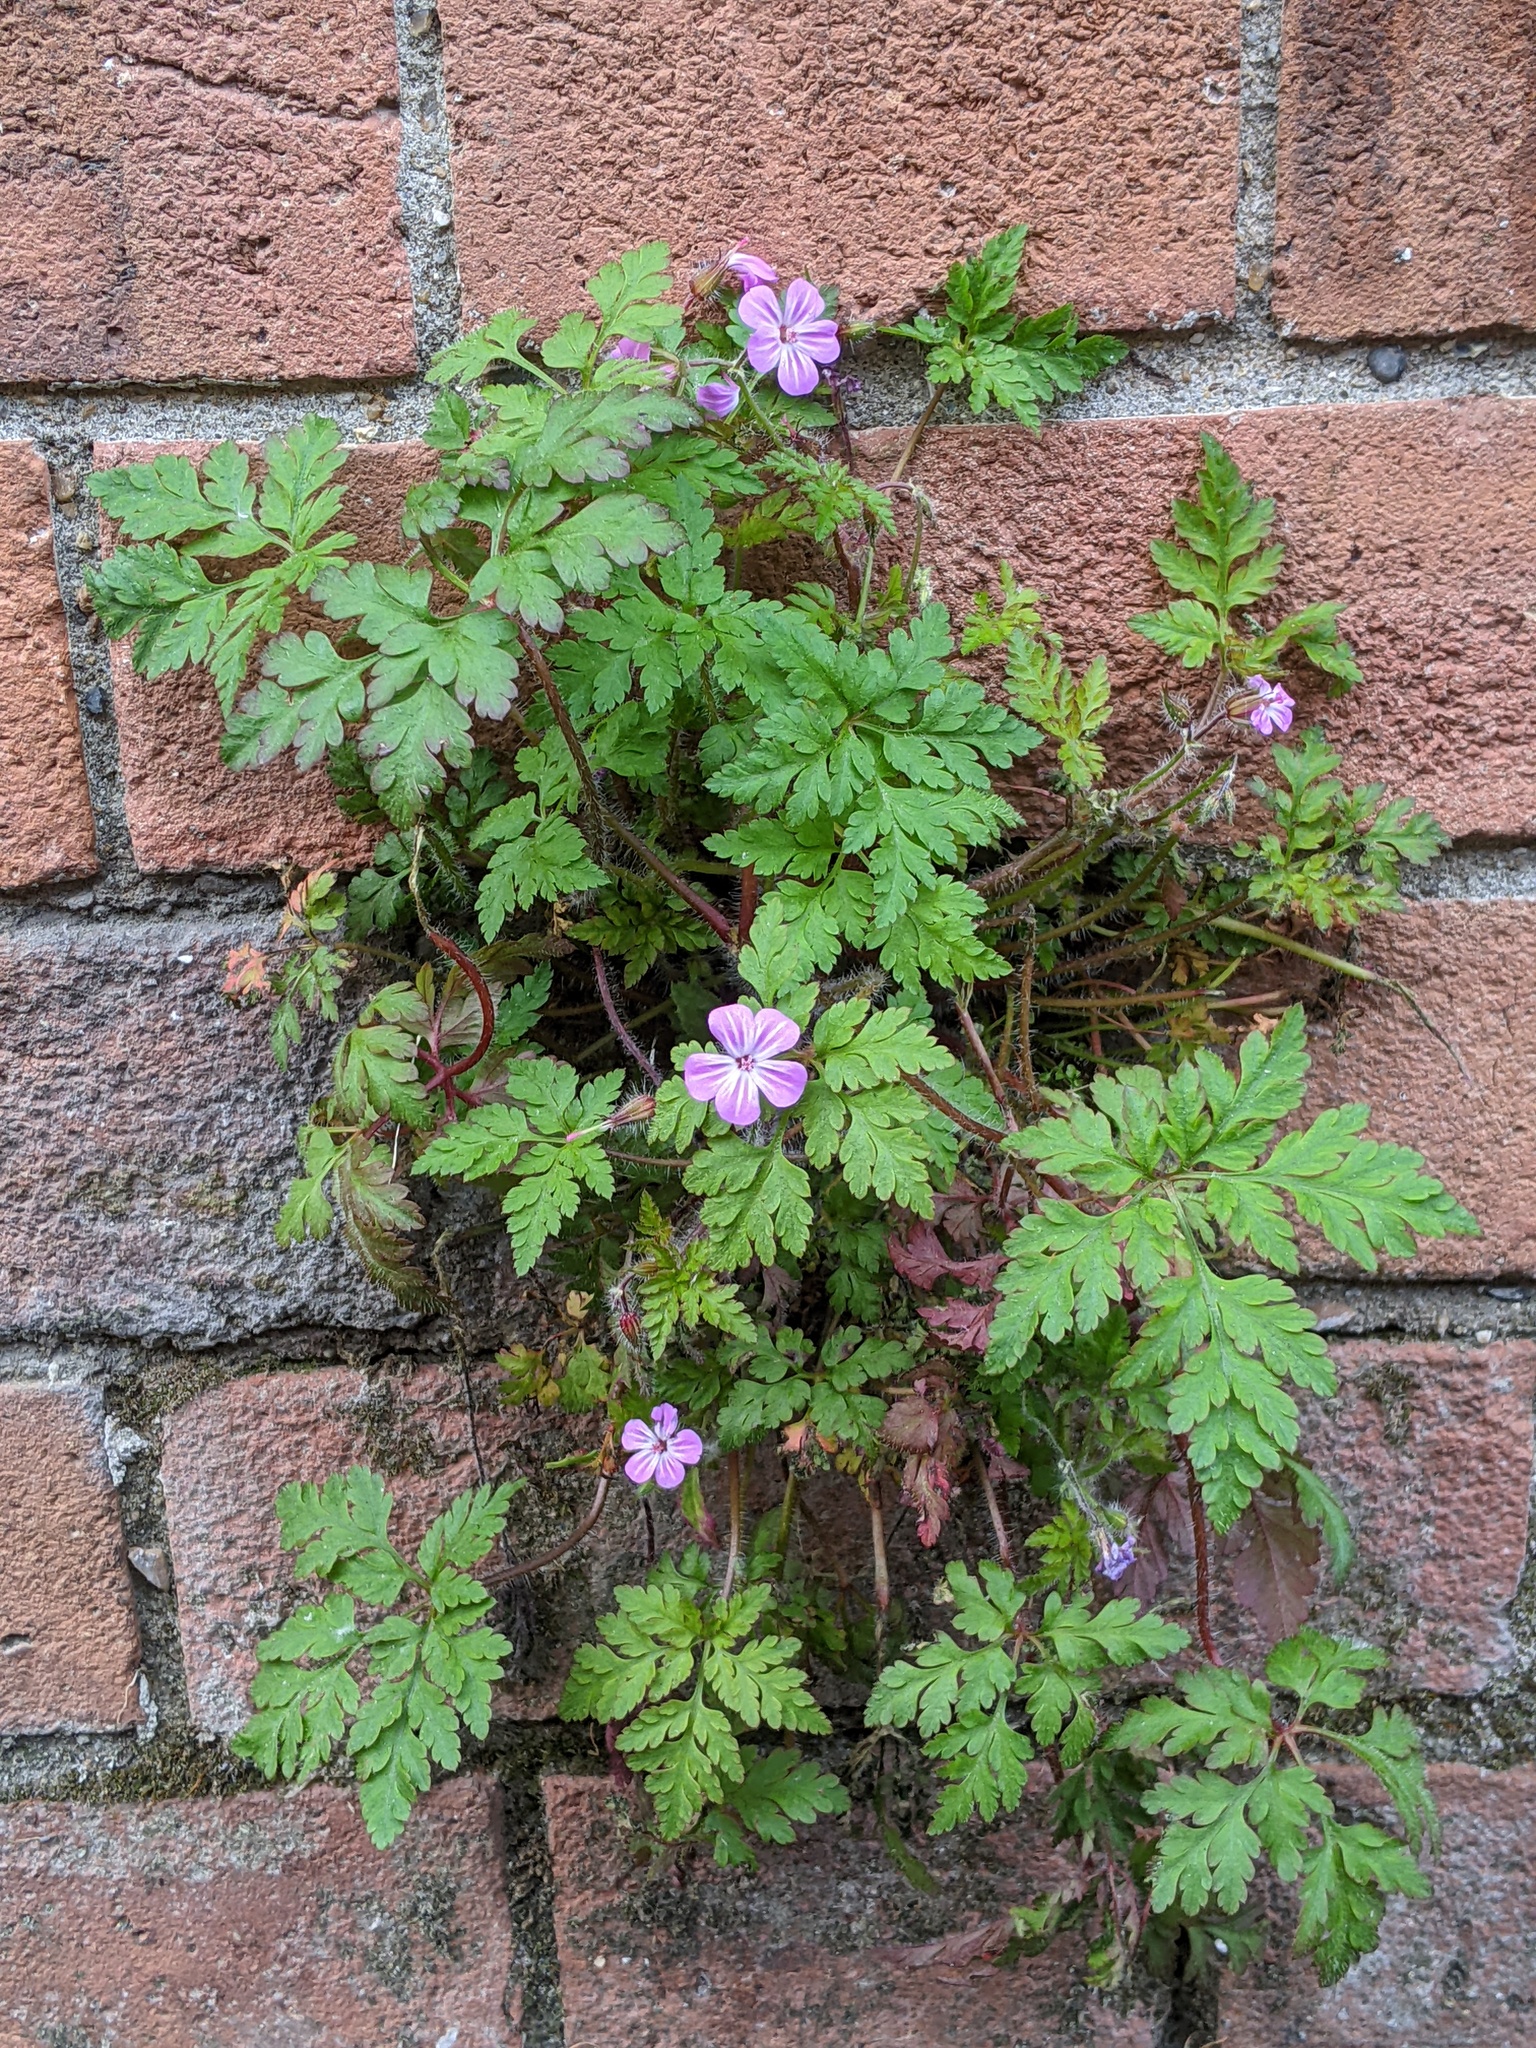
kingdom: Plantae
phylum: Tracheophyta
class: Magnoliopsida
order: Geraniales
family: Geraniaceae
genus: Geranium
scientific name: Geranium robertianum
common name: Herb-robert
